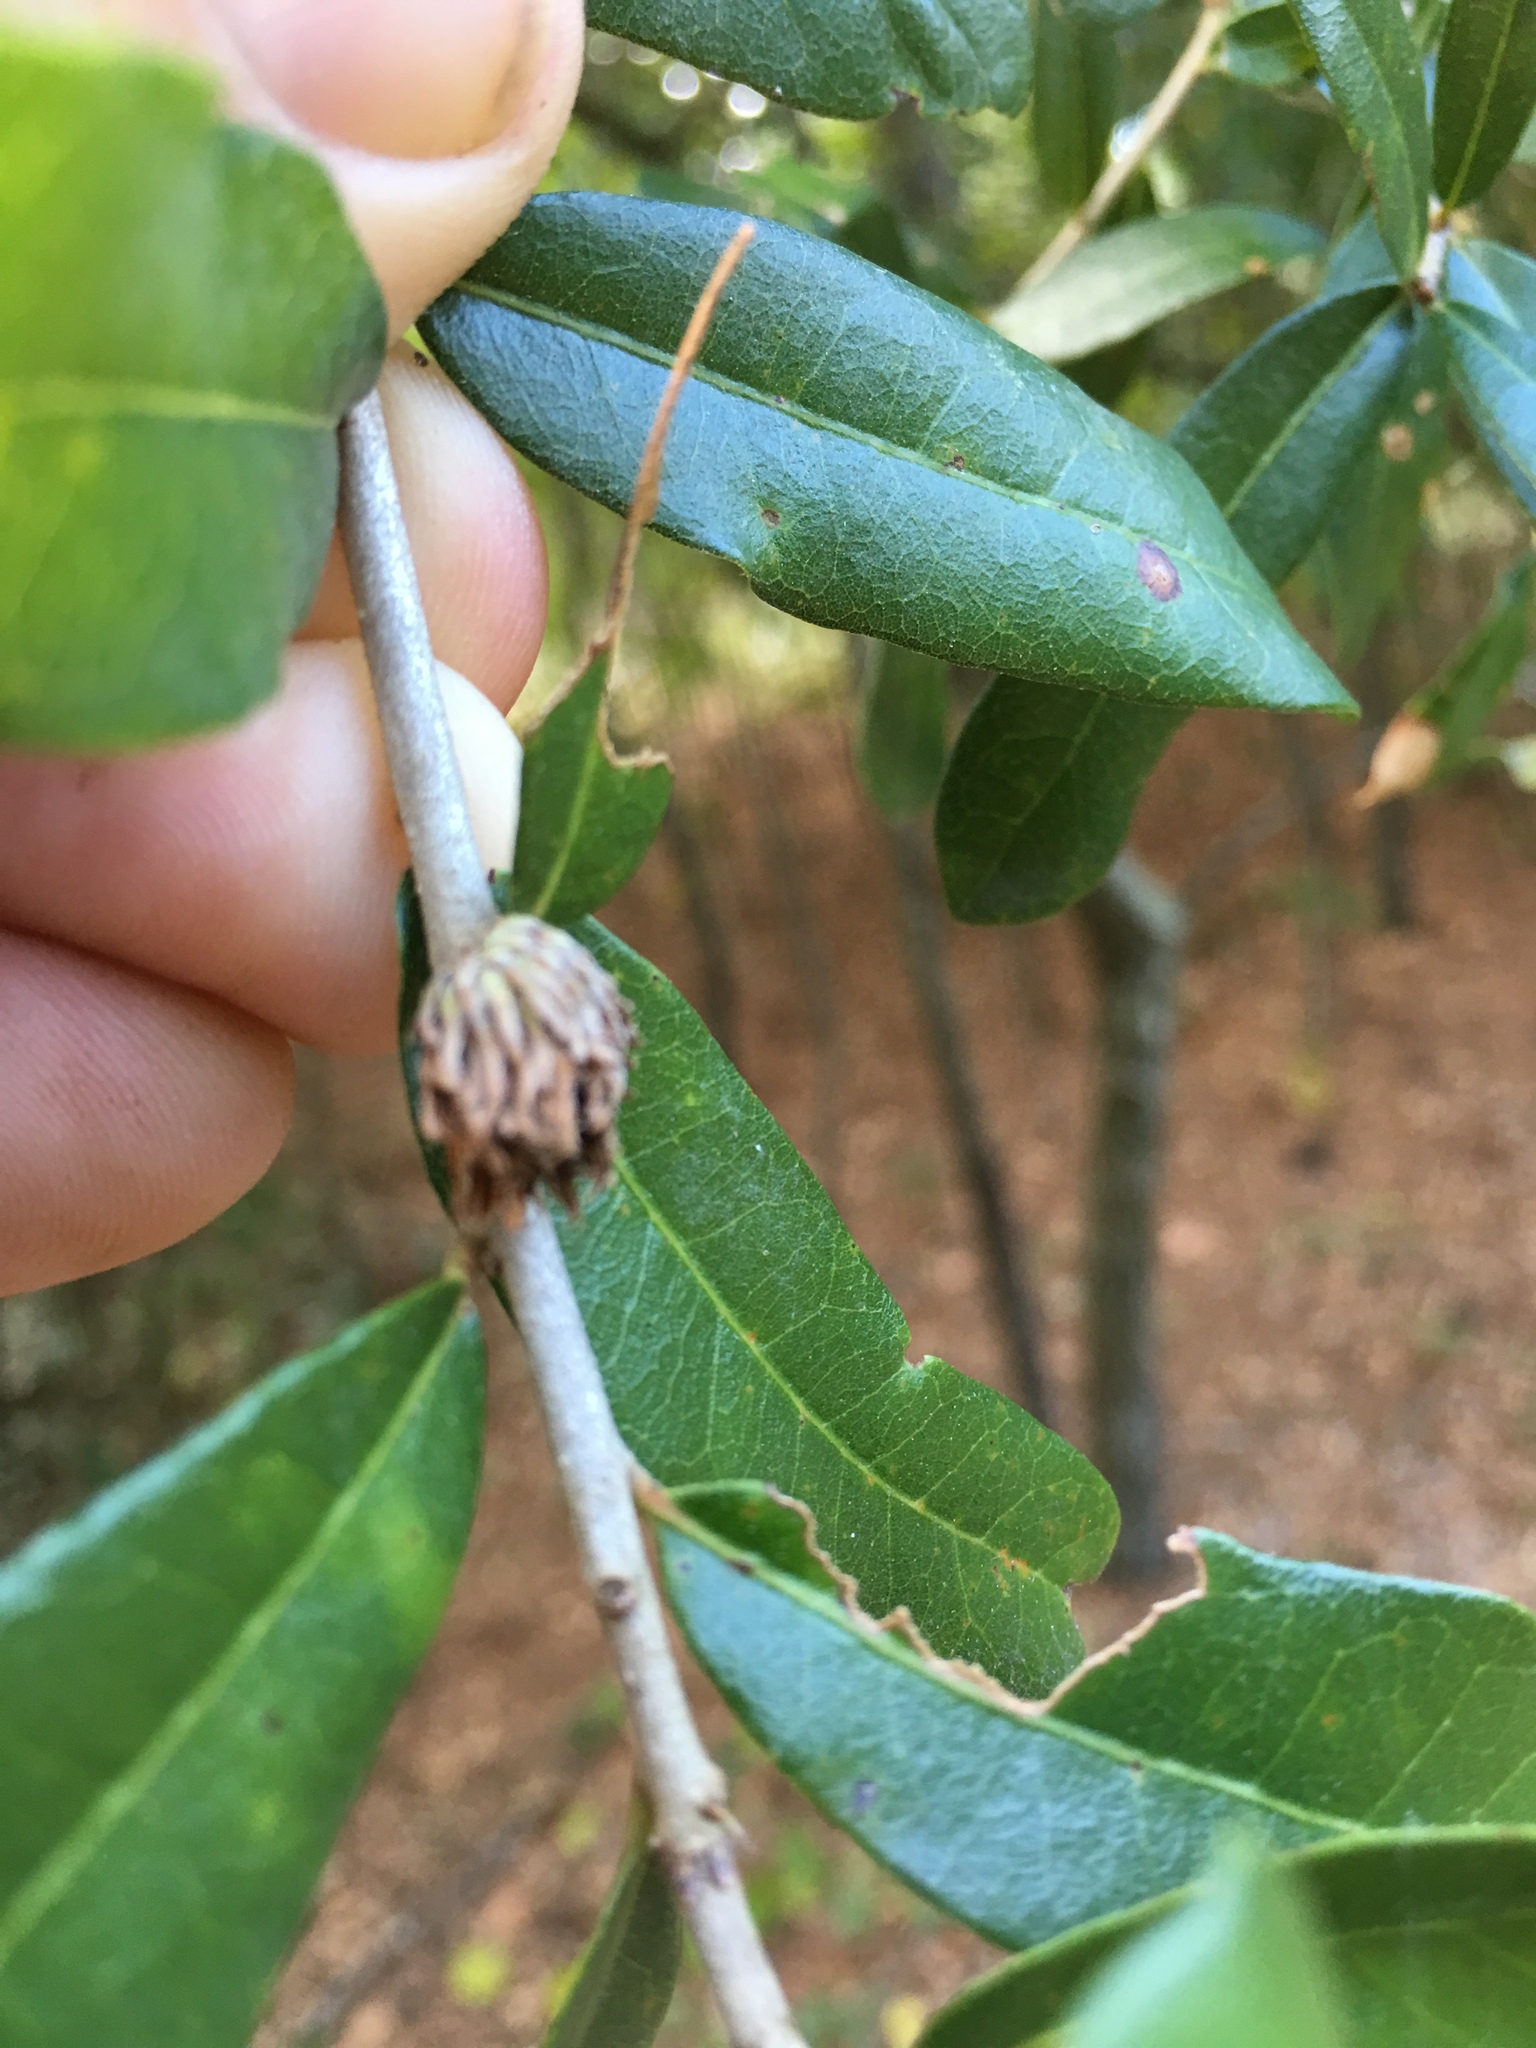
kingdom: Animalia
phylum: Arthropoda
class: Insecta
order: Hymenoptera
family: Cynipidae
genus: Andricus
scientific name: Andricus quercusfoliatus
